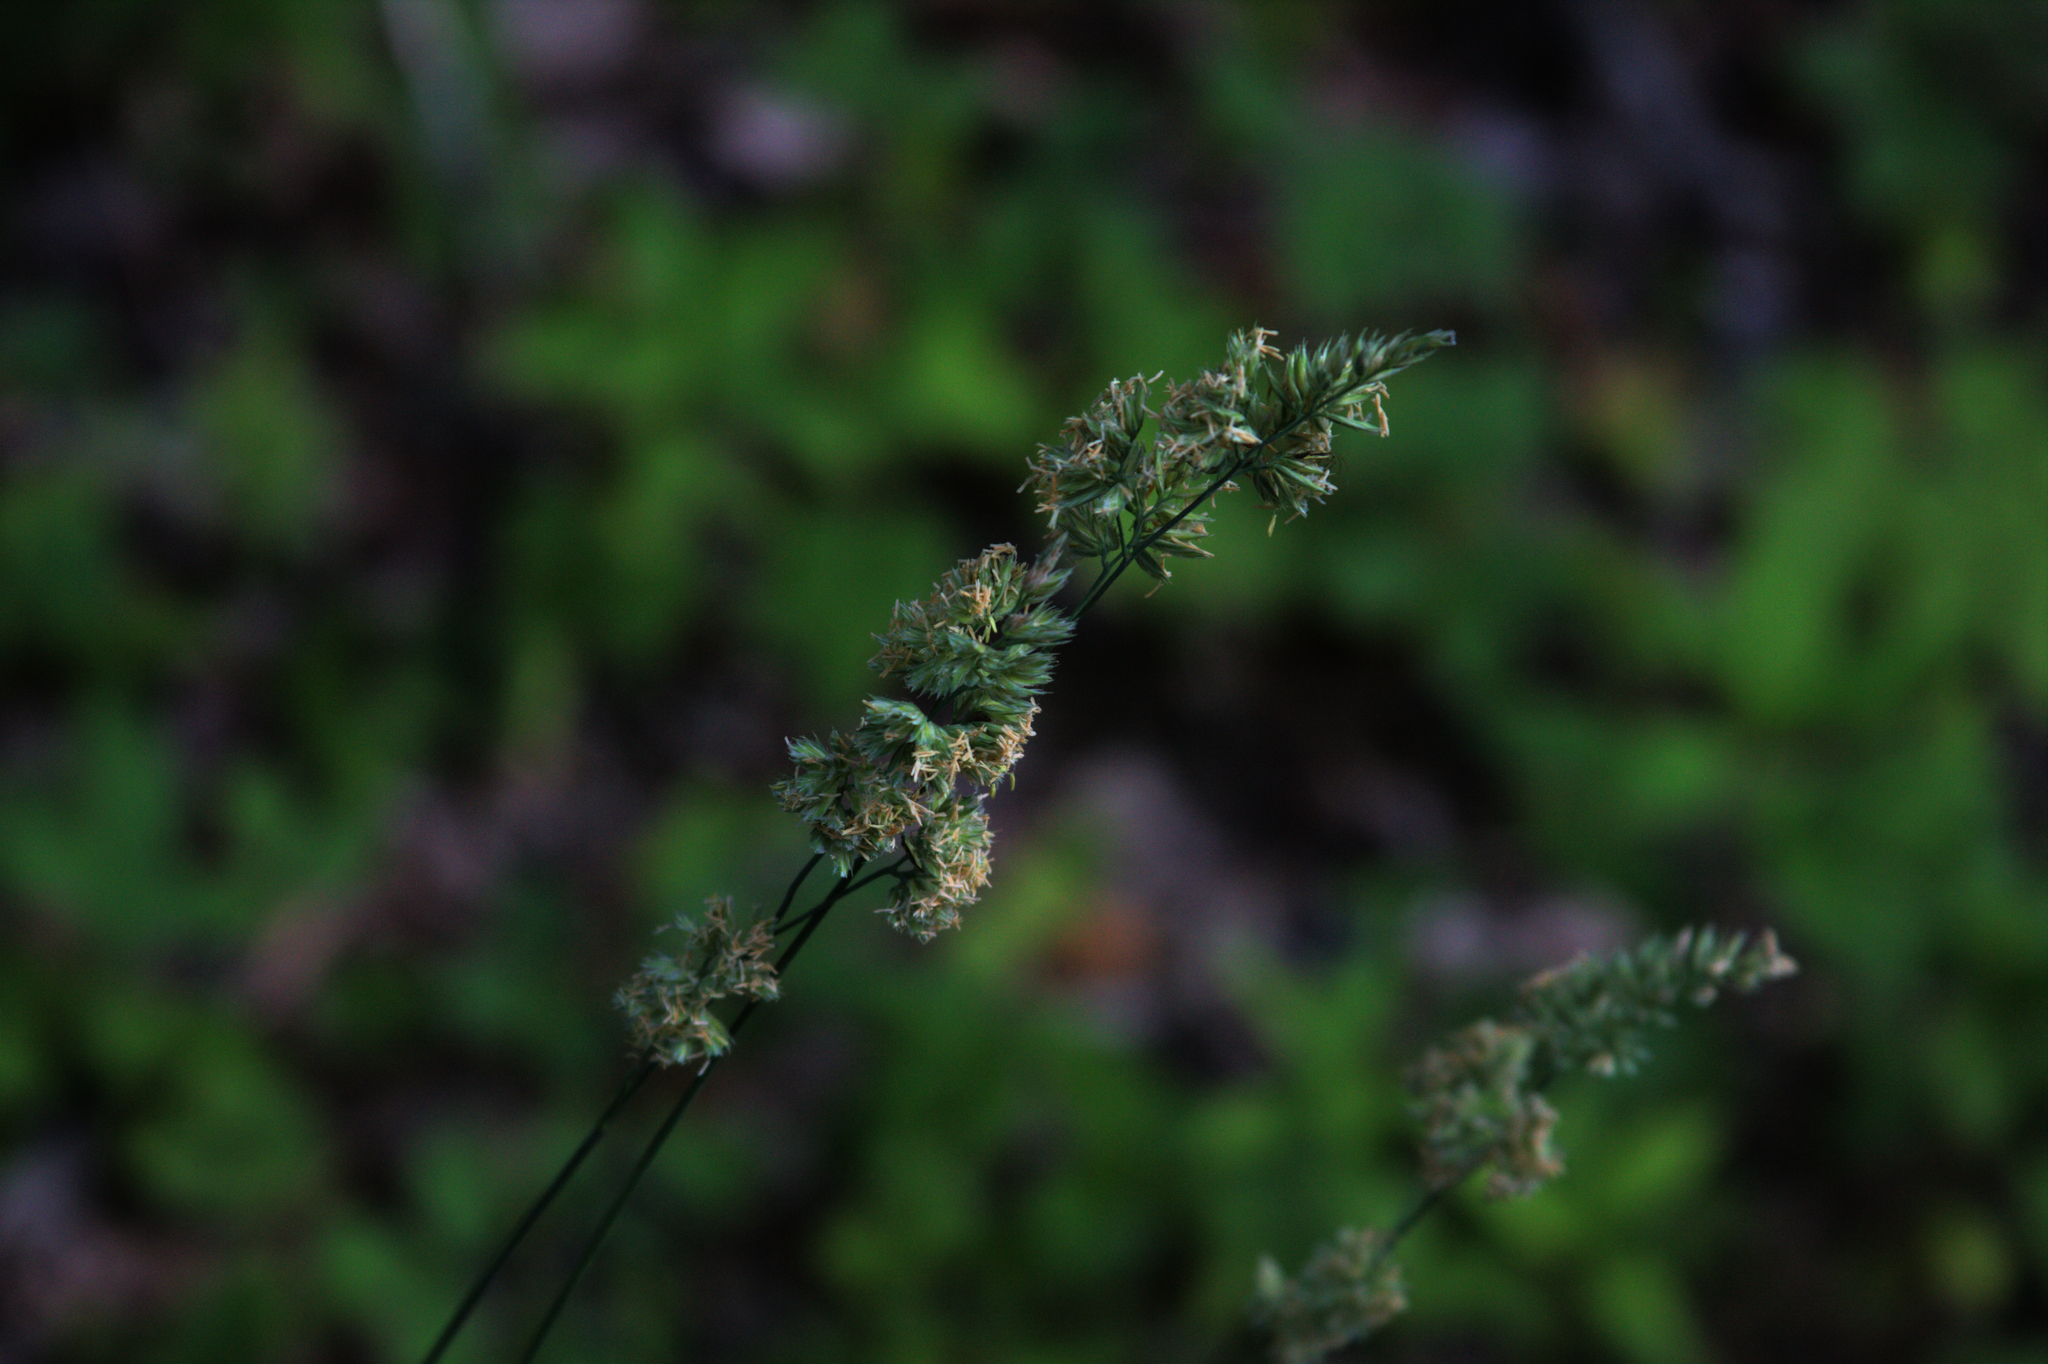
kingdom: Plantae
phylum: Tracheophyta
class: Liliopsida
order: Poales
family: Poaceae
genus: Dactylis
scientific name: Dactylis glomerata
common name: Orchardgrass
